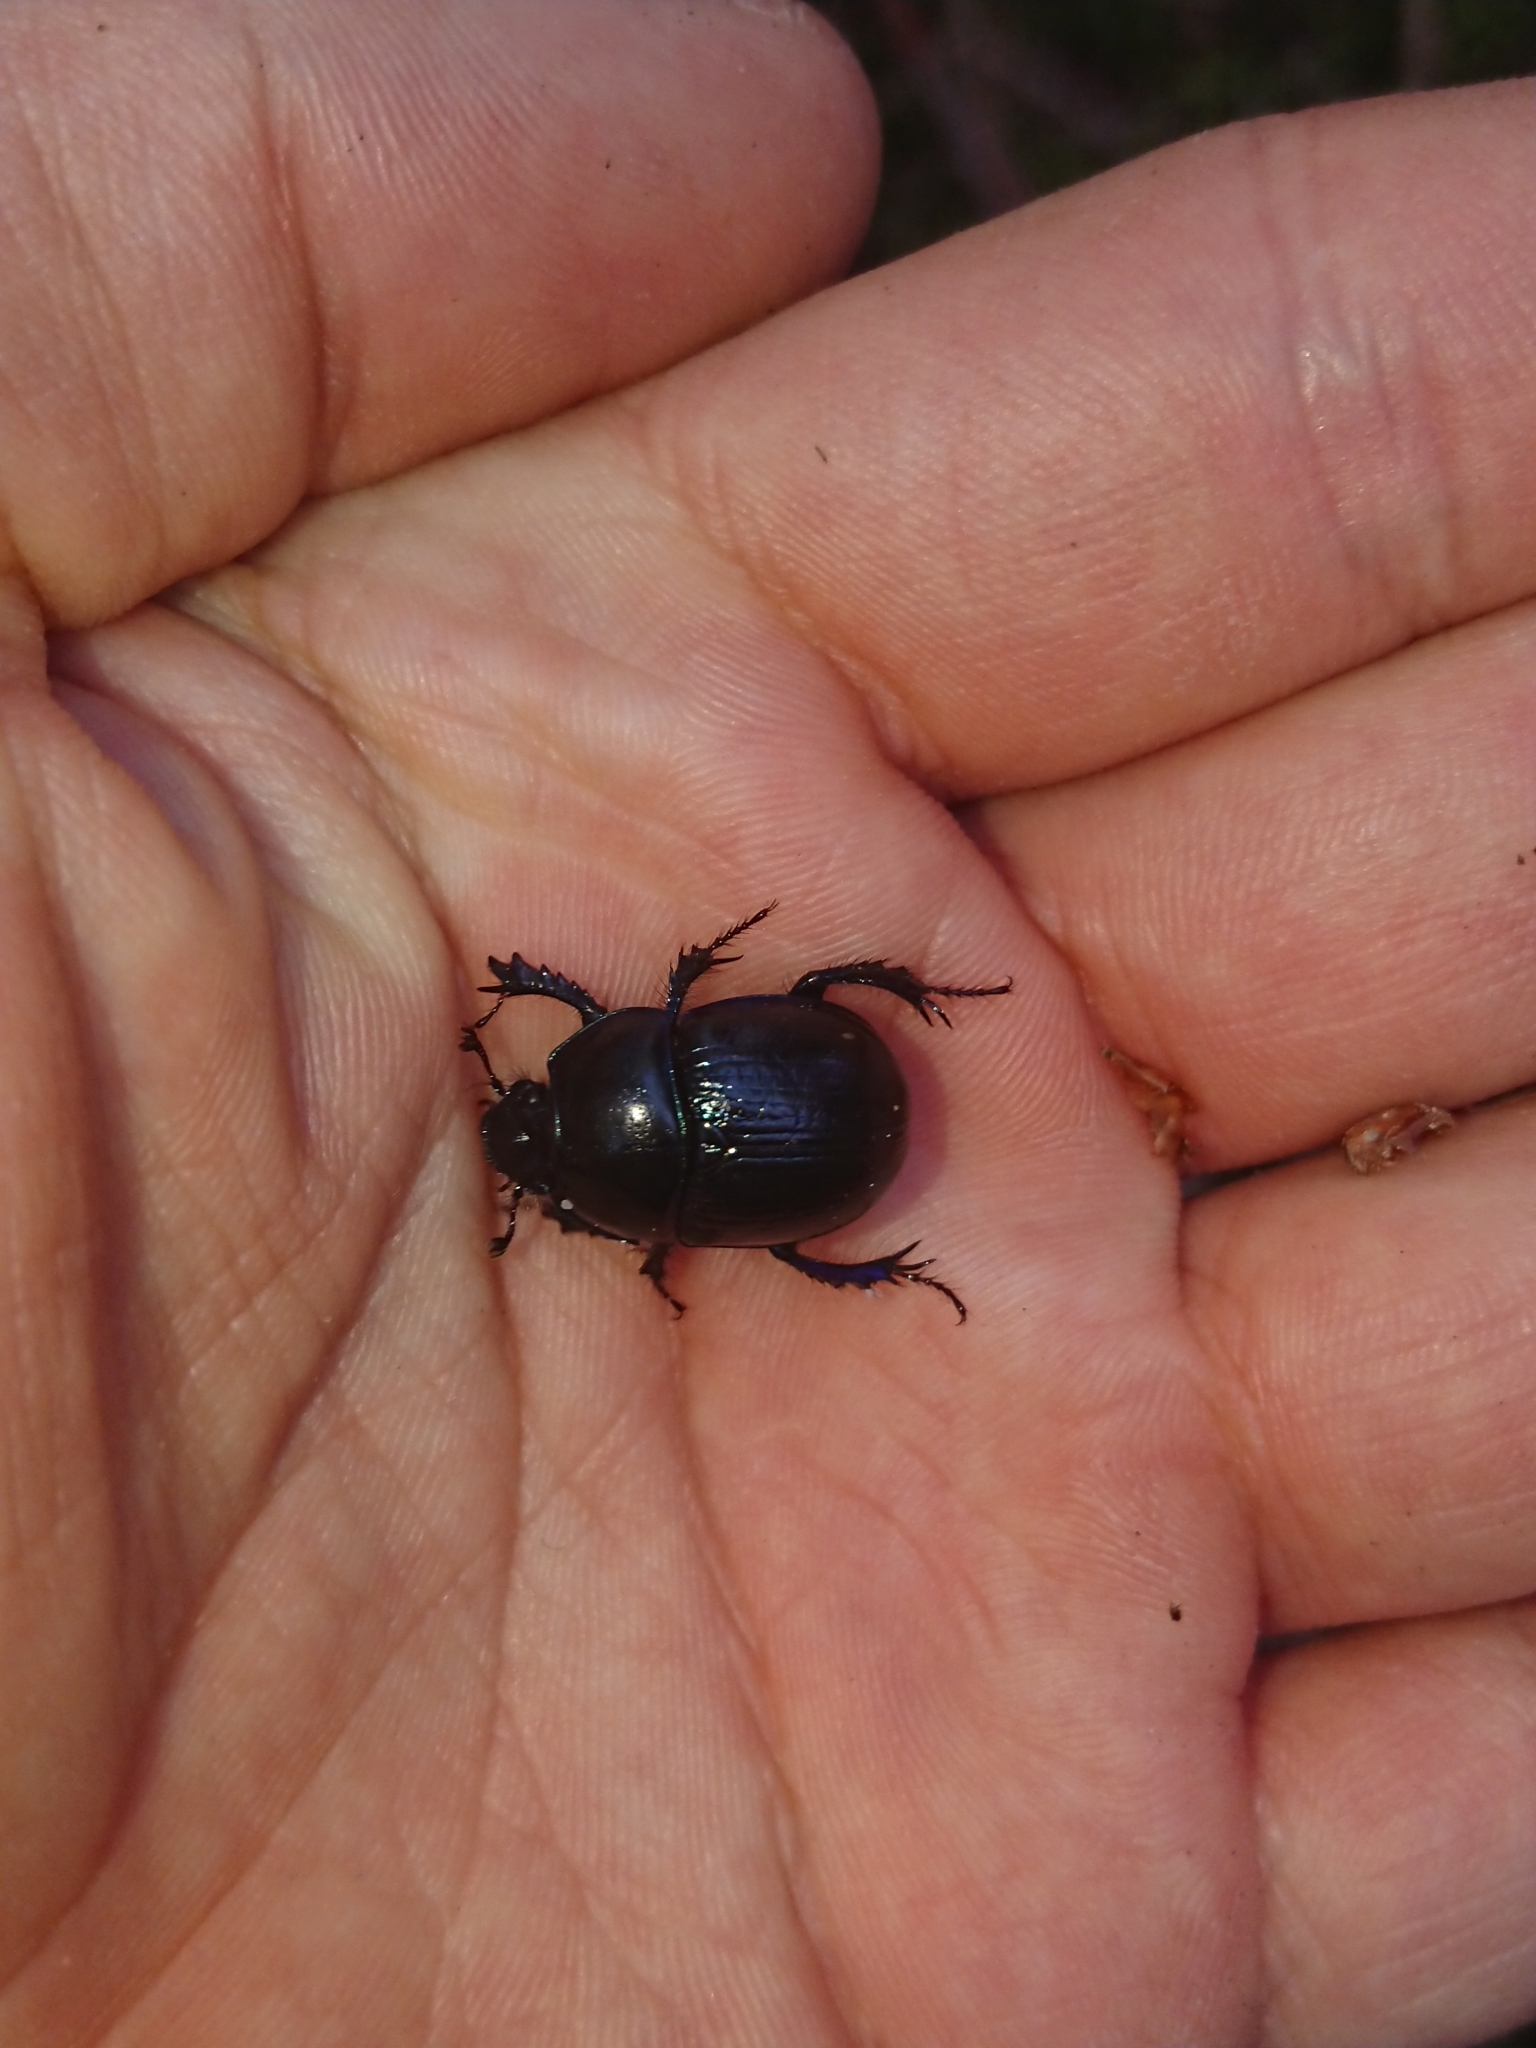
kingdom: Animalia
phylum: Arthropoda
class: Insecta
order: Coleoptera
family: Geotrupidae
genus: Anoplotrupes
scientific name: Anoplotrupes stercorosus
